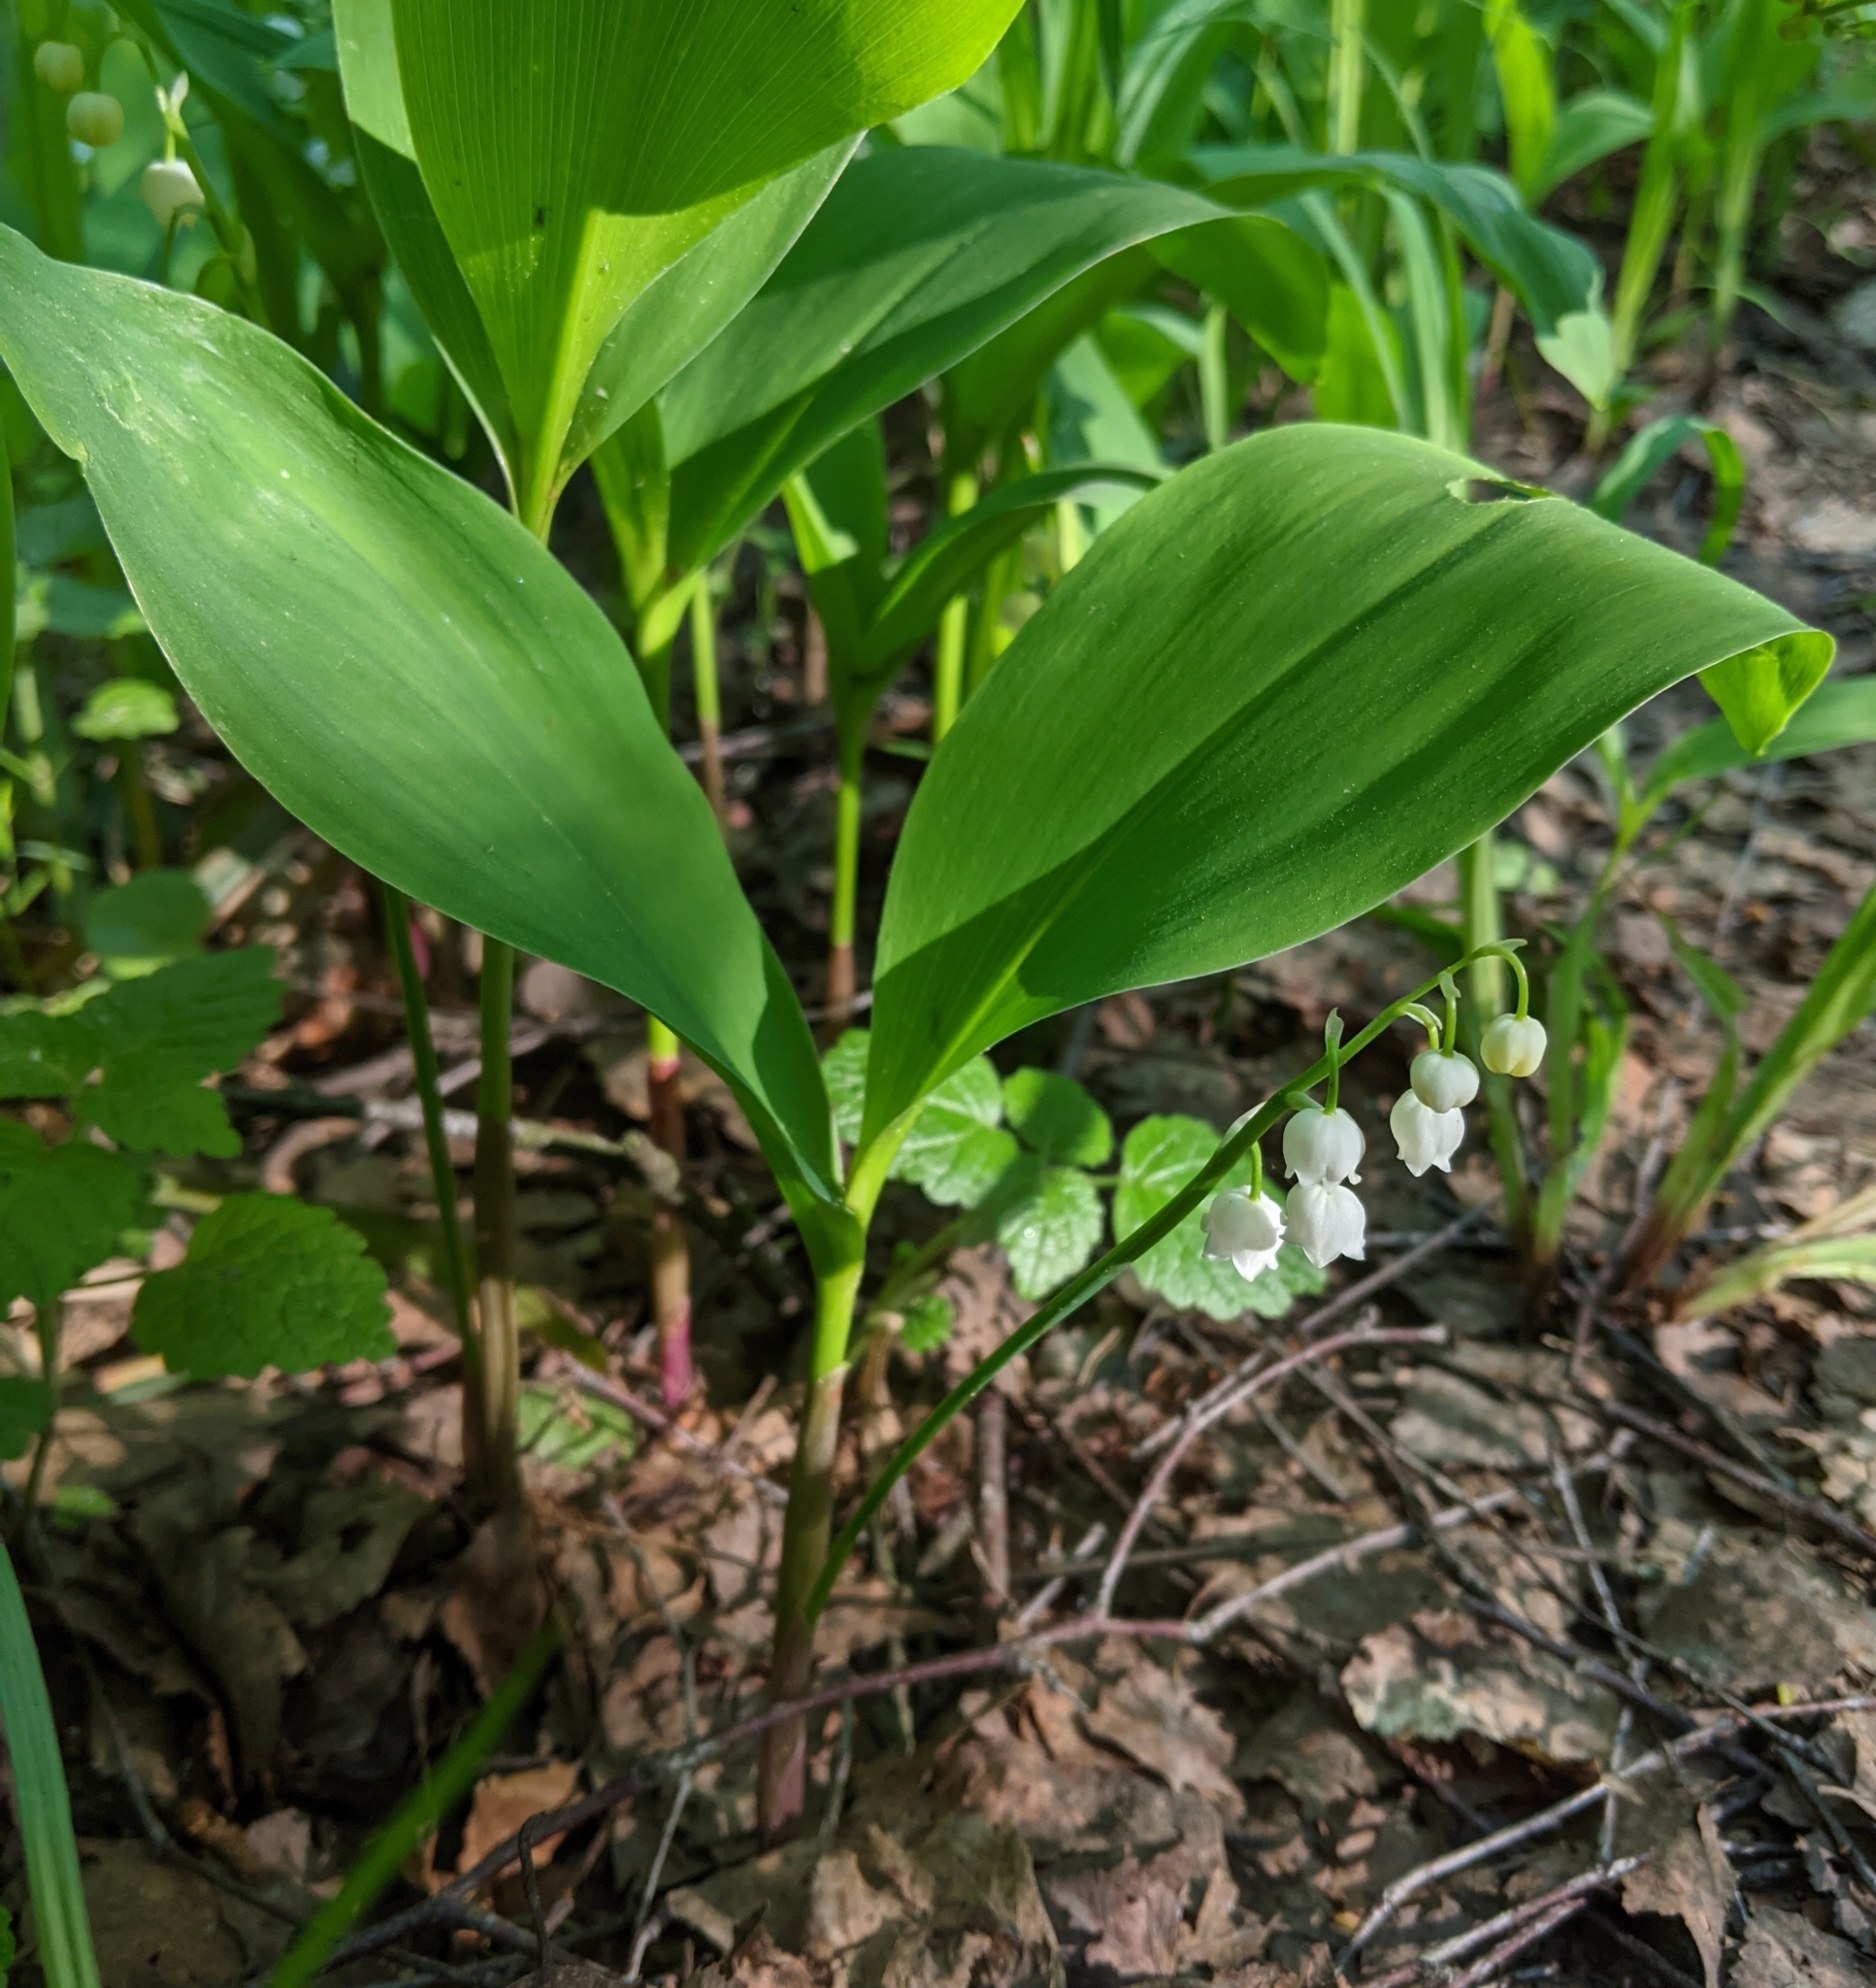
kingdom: Plantae
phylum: Tracheophyta
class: Liliopsida
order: Asparagales
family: Asparagaceae
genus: Convallaria
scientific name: Convallaria majalis
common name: Lily-of-the-valley
